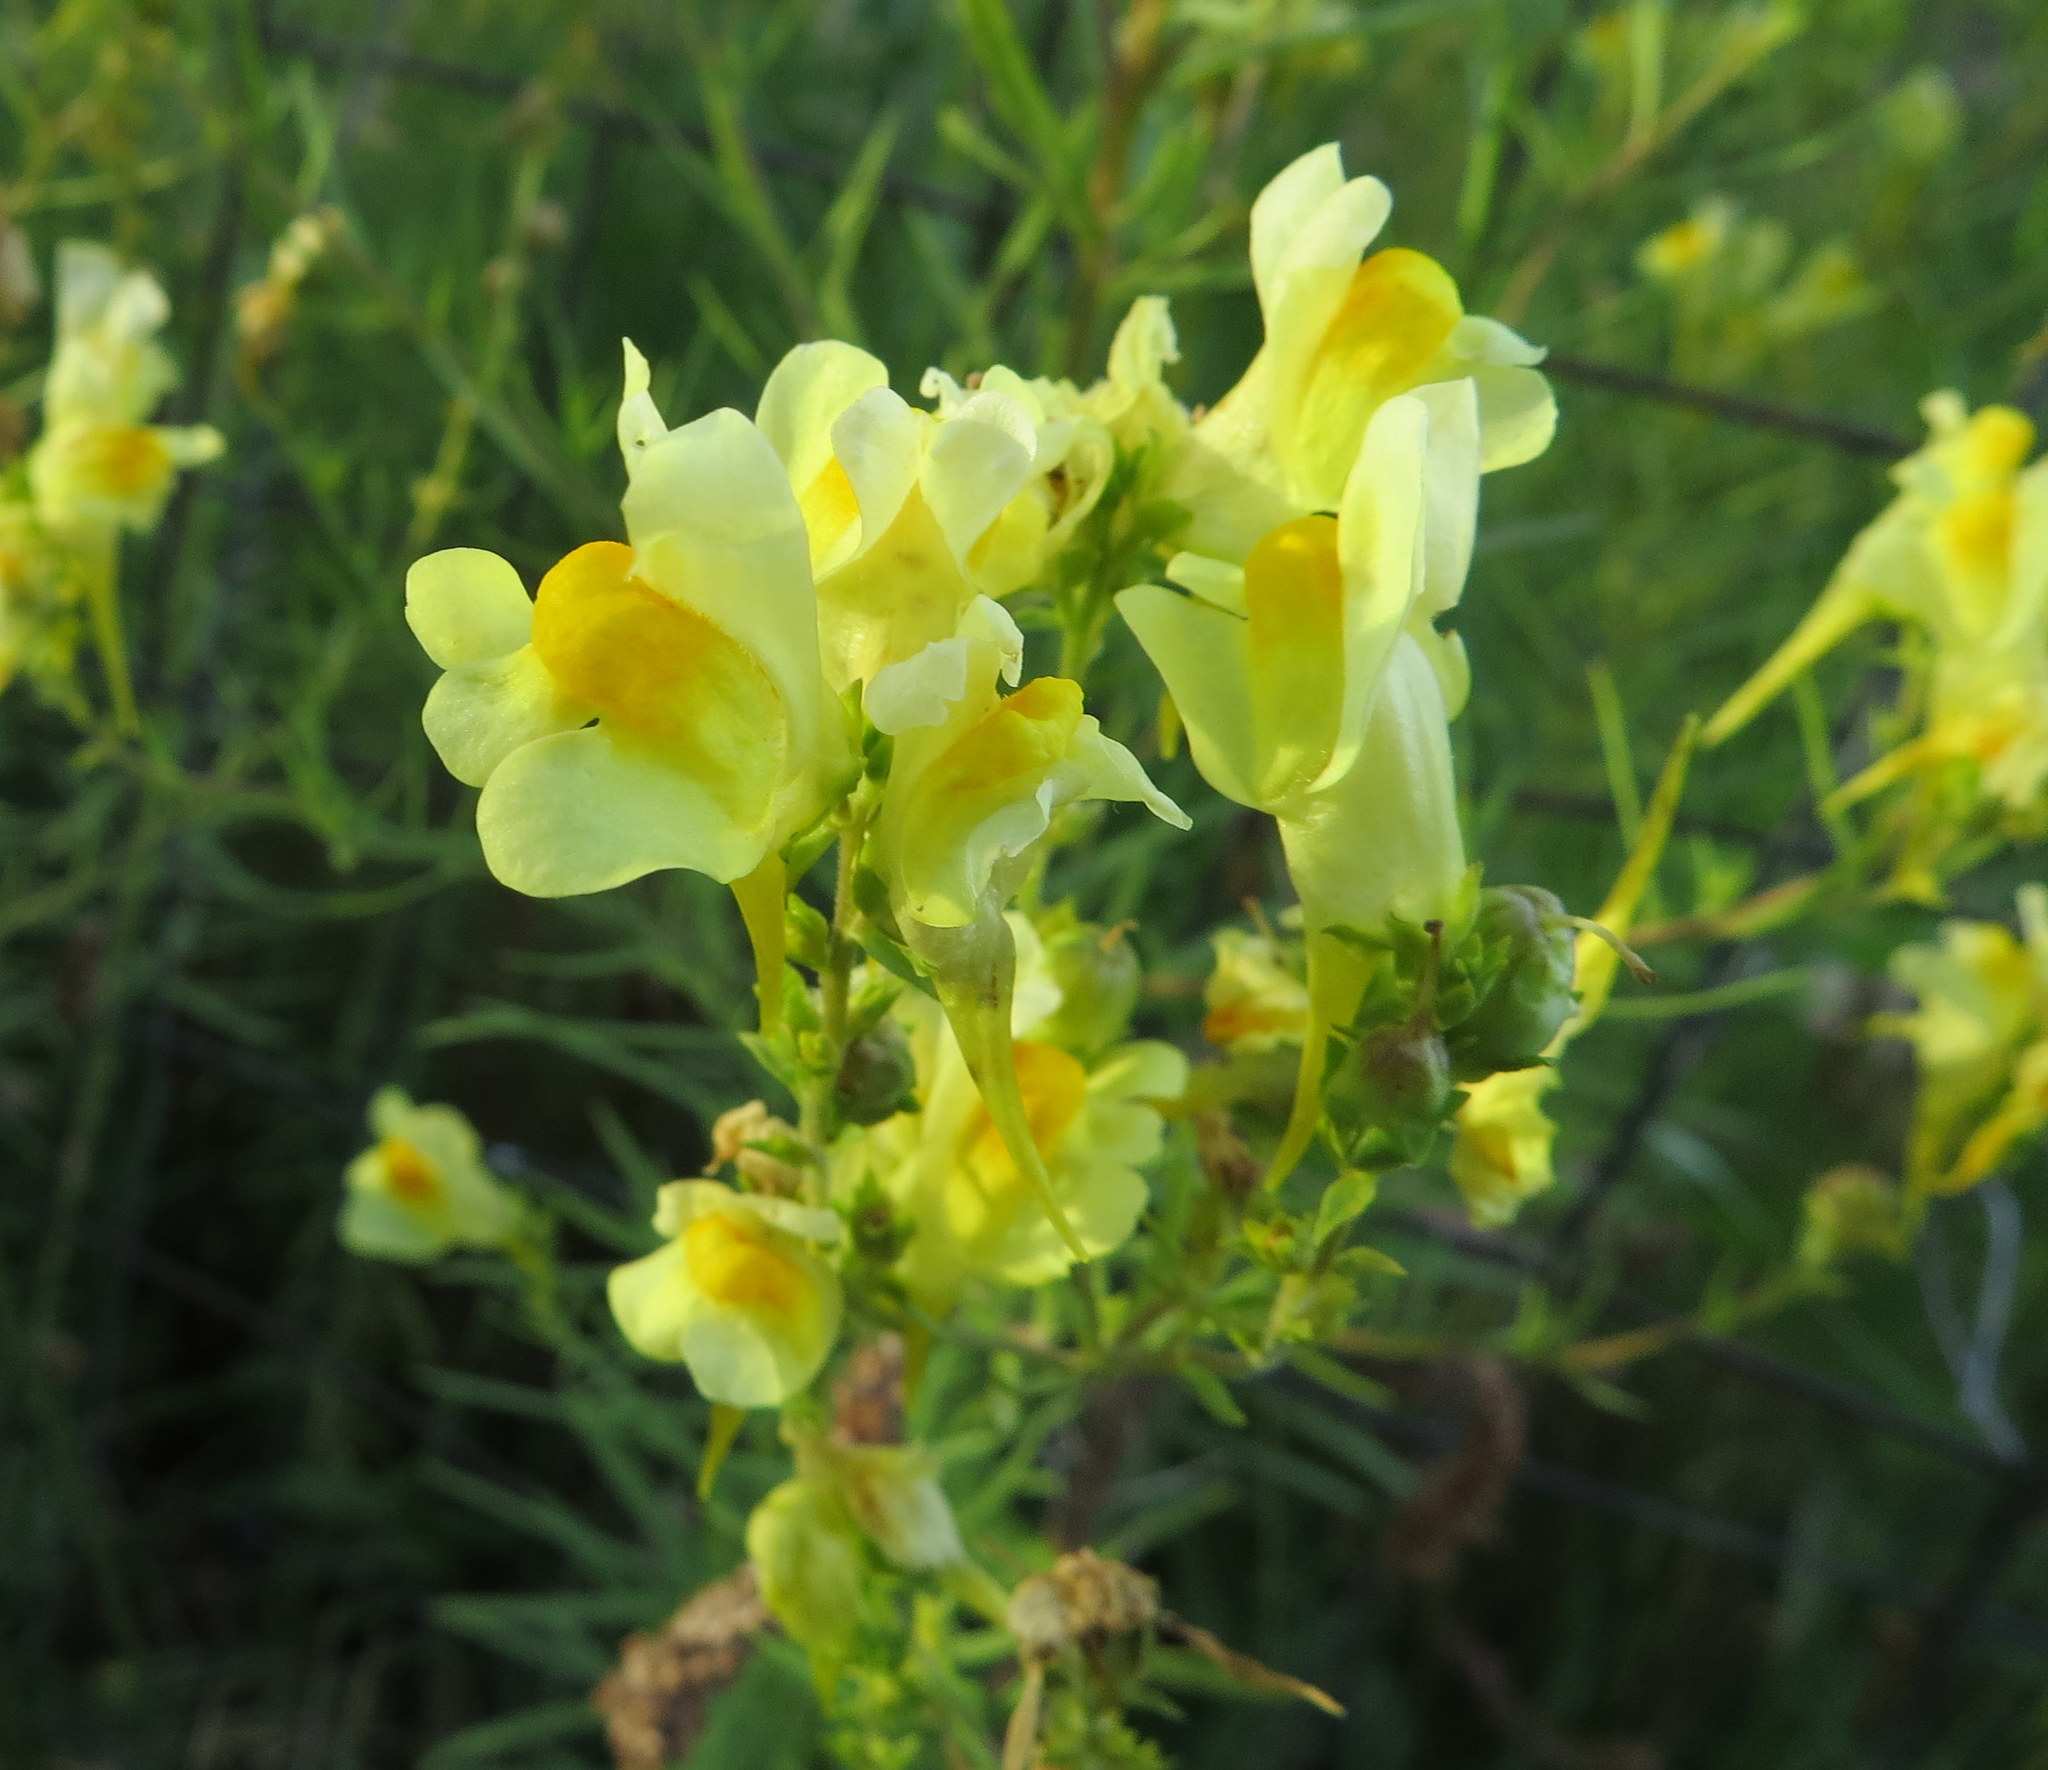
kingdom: Plantae
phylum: Tracheophyta
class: Magnoliopsida
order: Lamiales
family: Plantaginaceae
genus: Linaria
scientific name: Linaria vulgaris
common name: Butter and eggs
